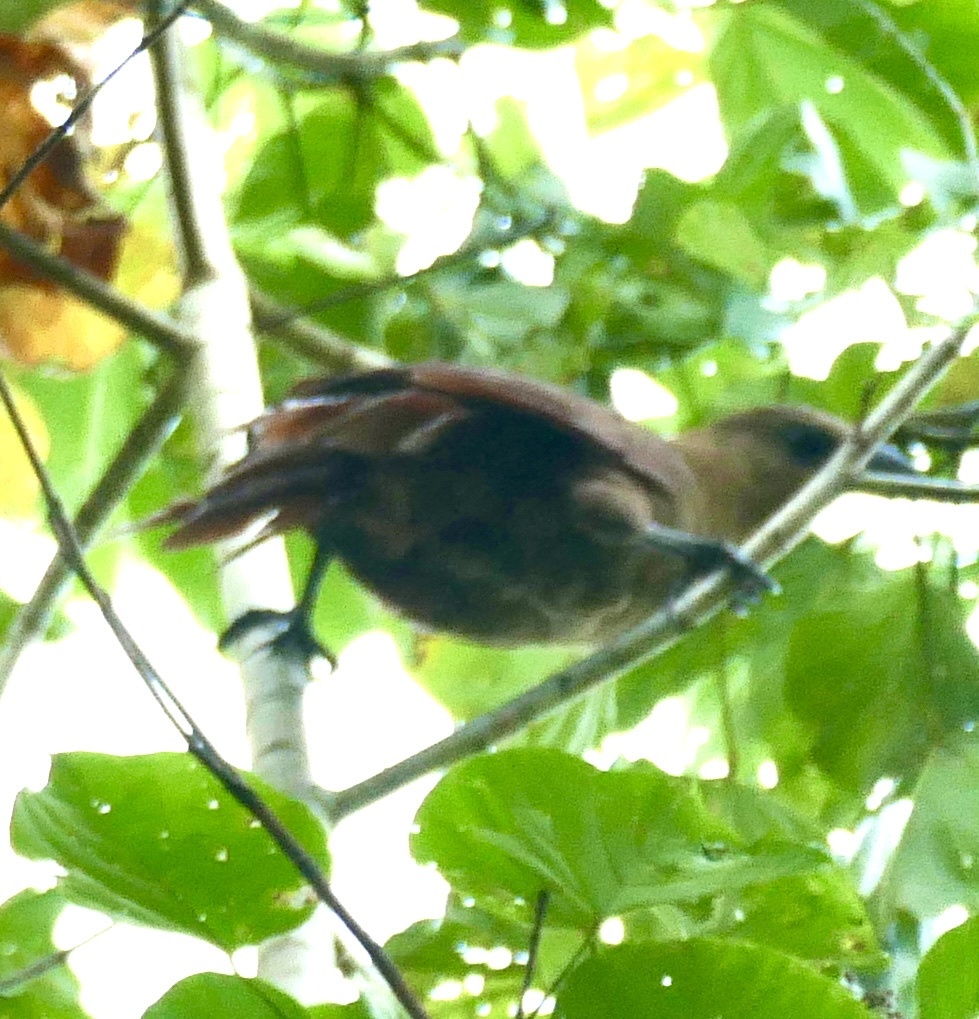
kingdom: Animalia
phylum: Chordata
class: Aves
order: Cuculiformes
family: Cuculidae
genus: Centropus
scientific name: Centropus celebensis
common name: Bay coucal
